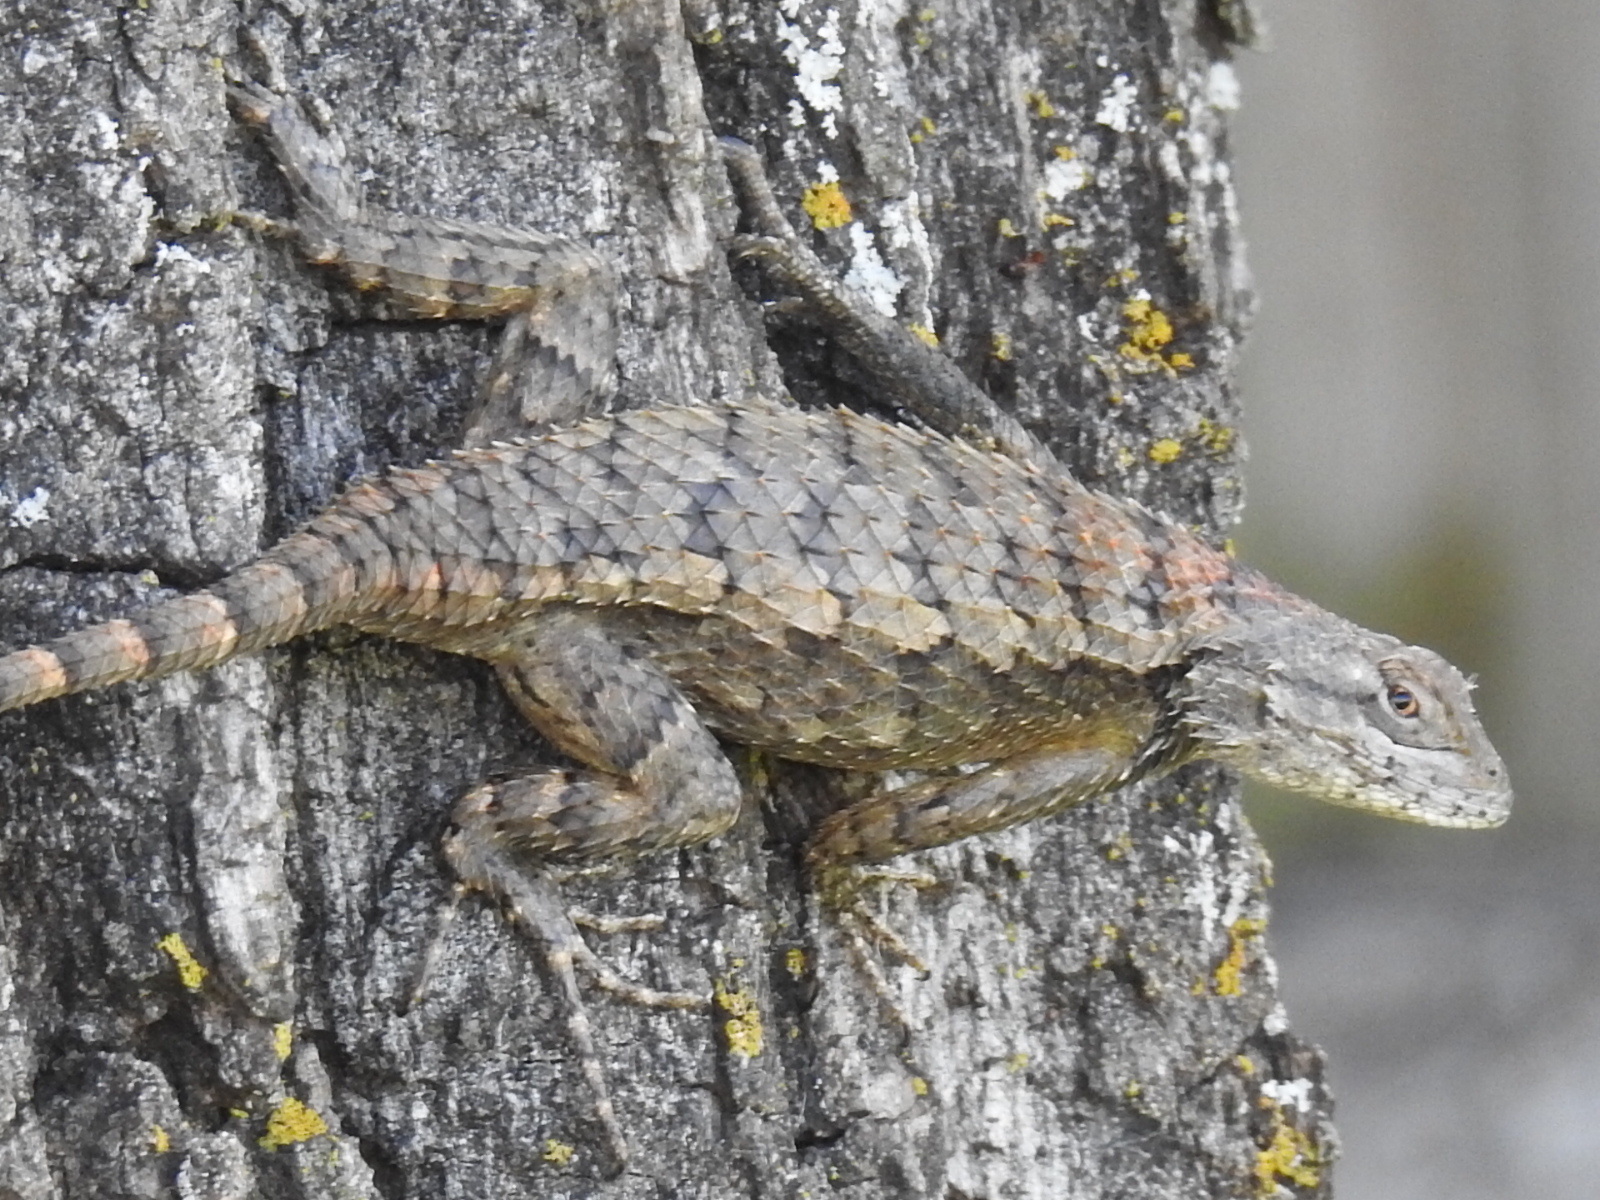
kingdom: Animalia
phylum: Chordata
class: Squamata
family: Phrynosomatidae
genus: Sceloporus
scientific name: Sceloporus olivaceus
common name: Texas spiny lizard
